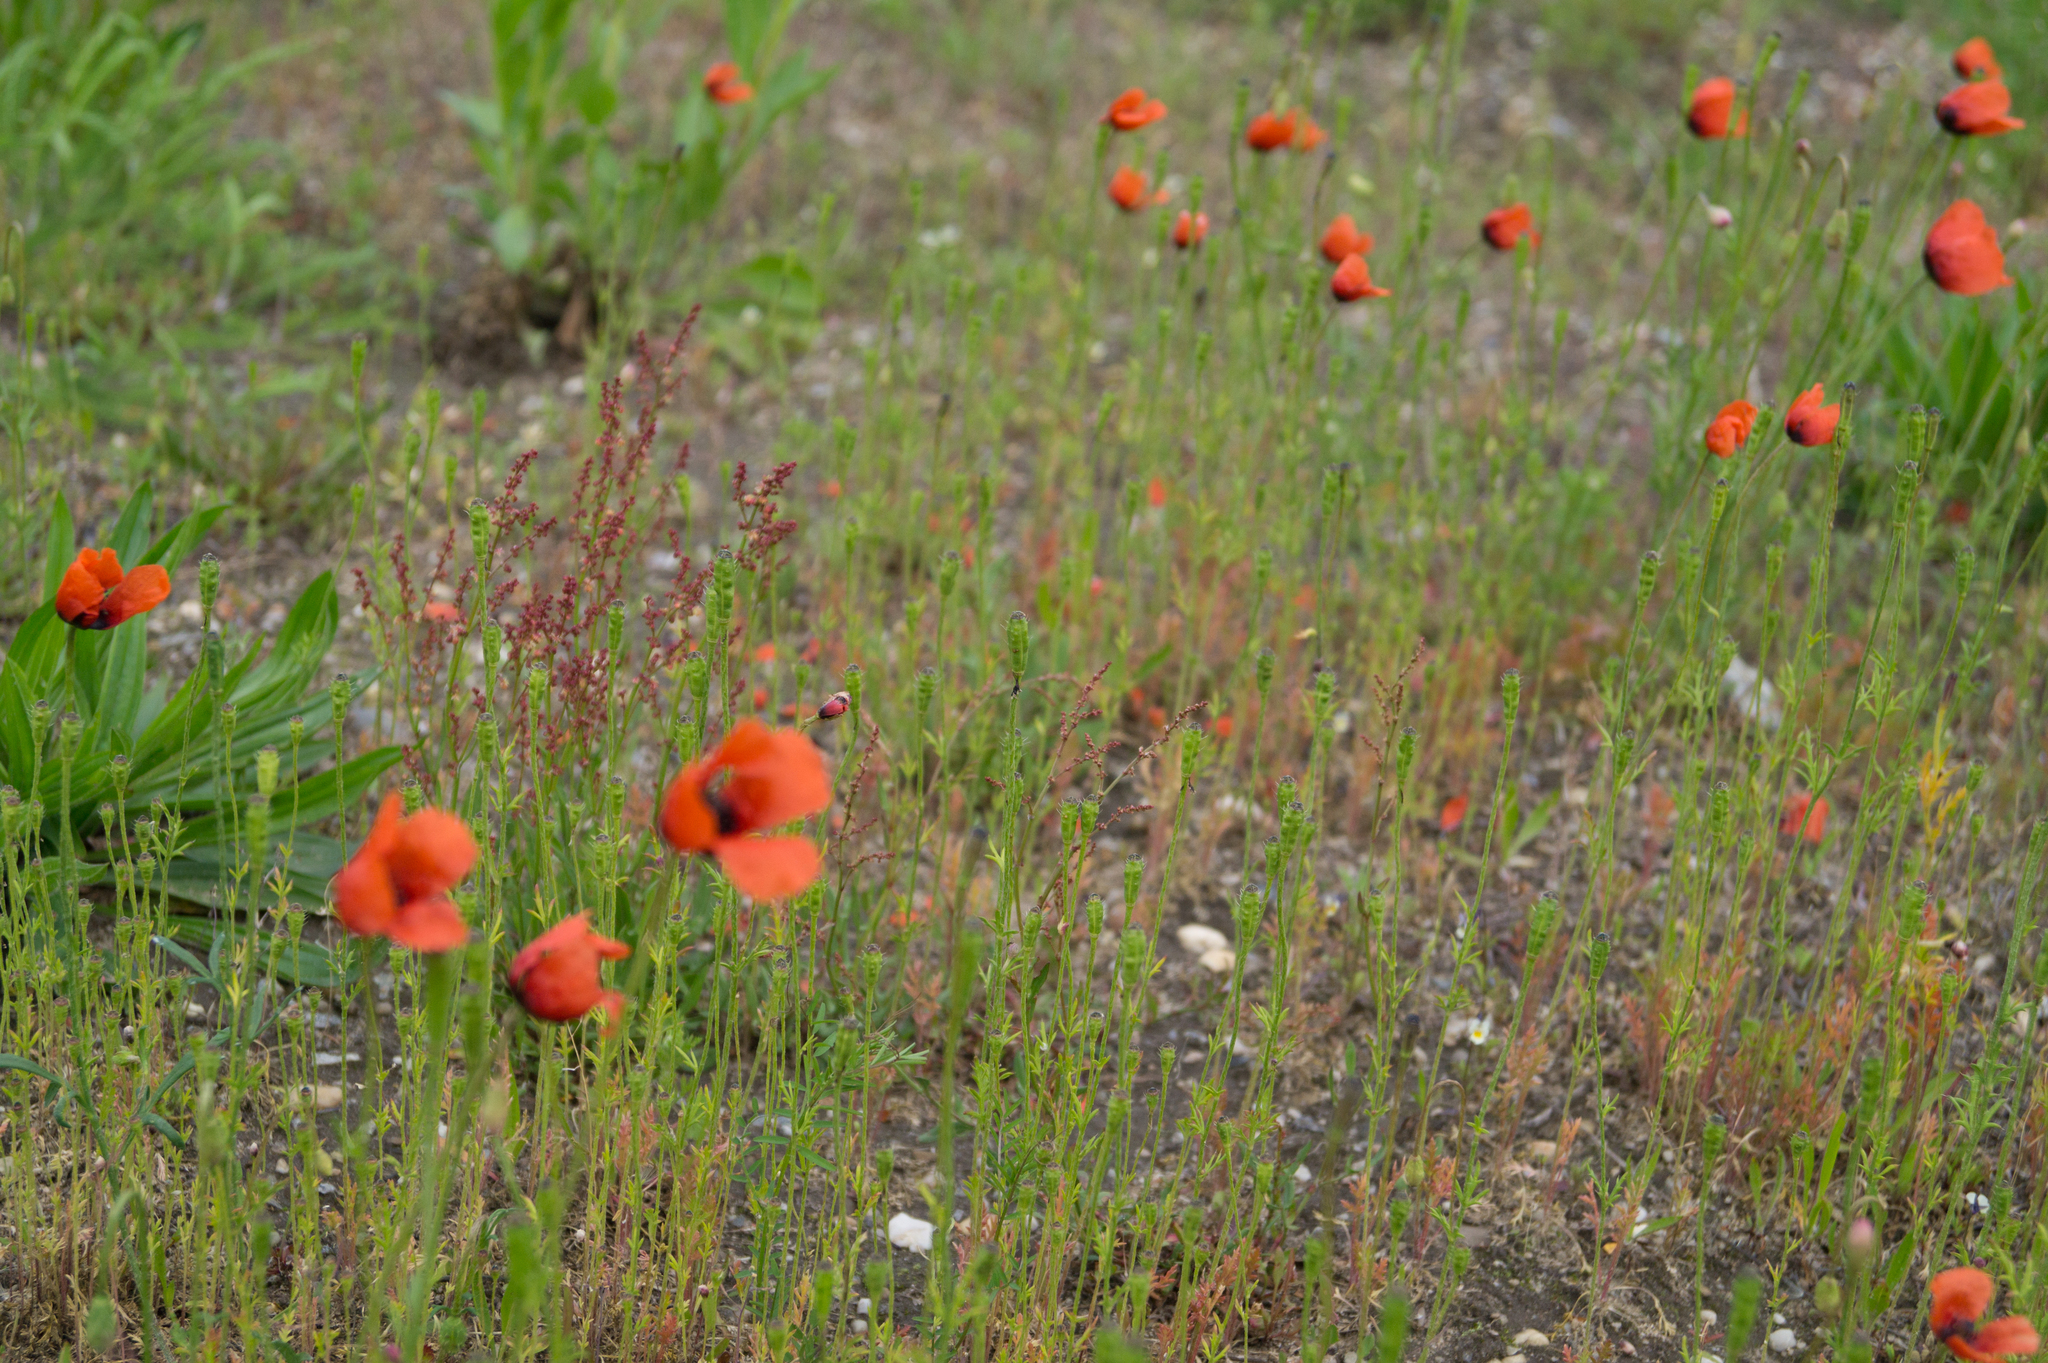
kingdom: Plantae
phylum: Tracheophyta
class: Magnoliopsida
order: Ranunculales
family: Papaveraceae
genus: Roemeria
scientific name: Roemeria argemone
